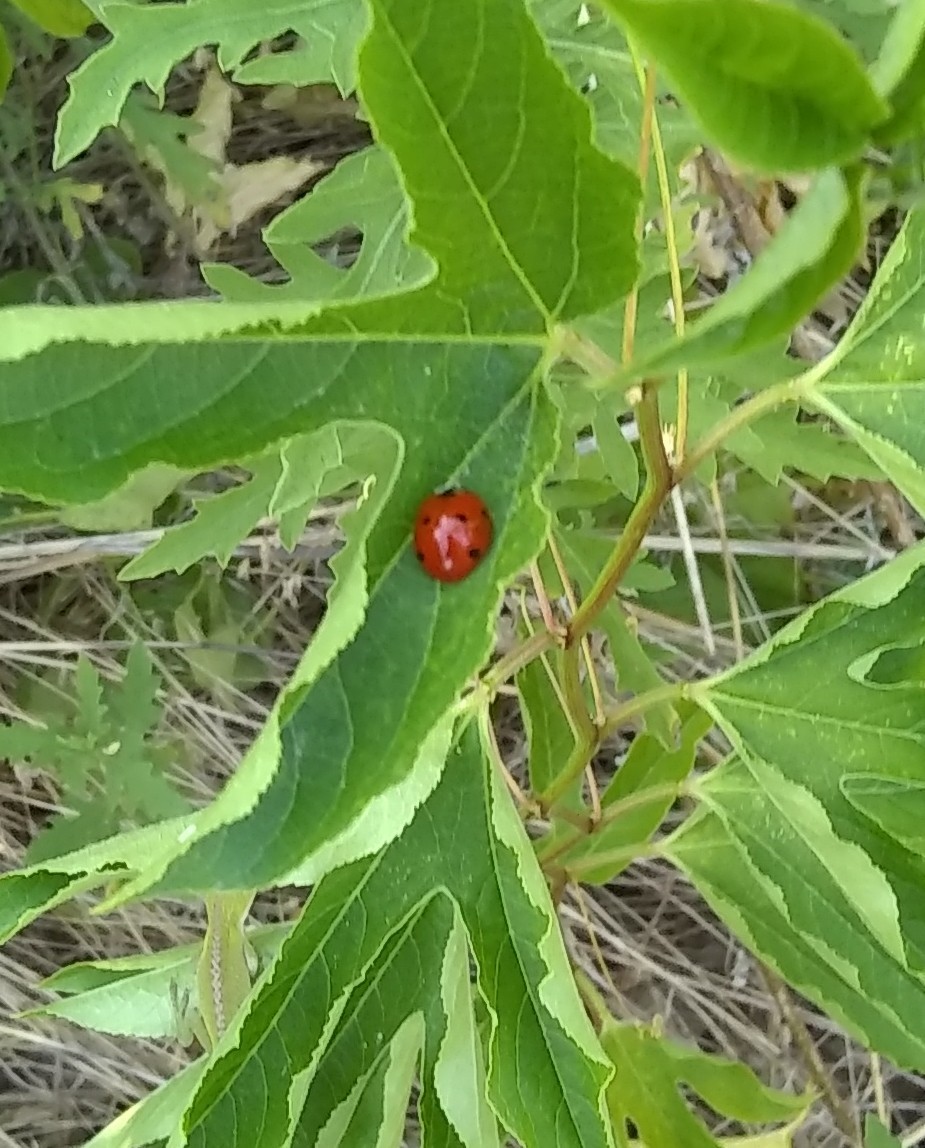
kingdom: Animalia
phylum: Arthropoda
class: Insecta
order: Coleoptera
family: Coccinellidae
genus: Coccinella
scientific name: Coccinella septempunctata
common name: Sevenspotted lady beetle
